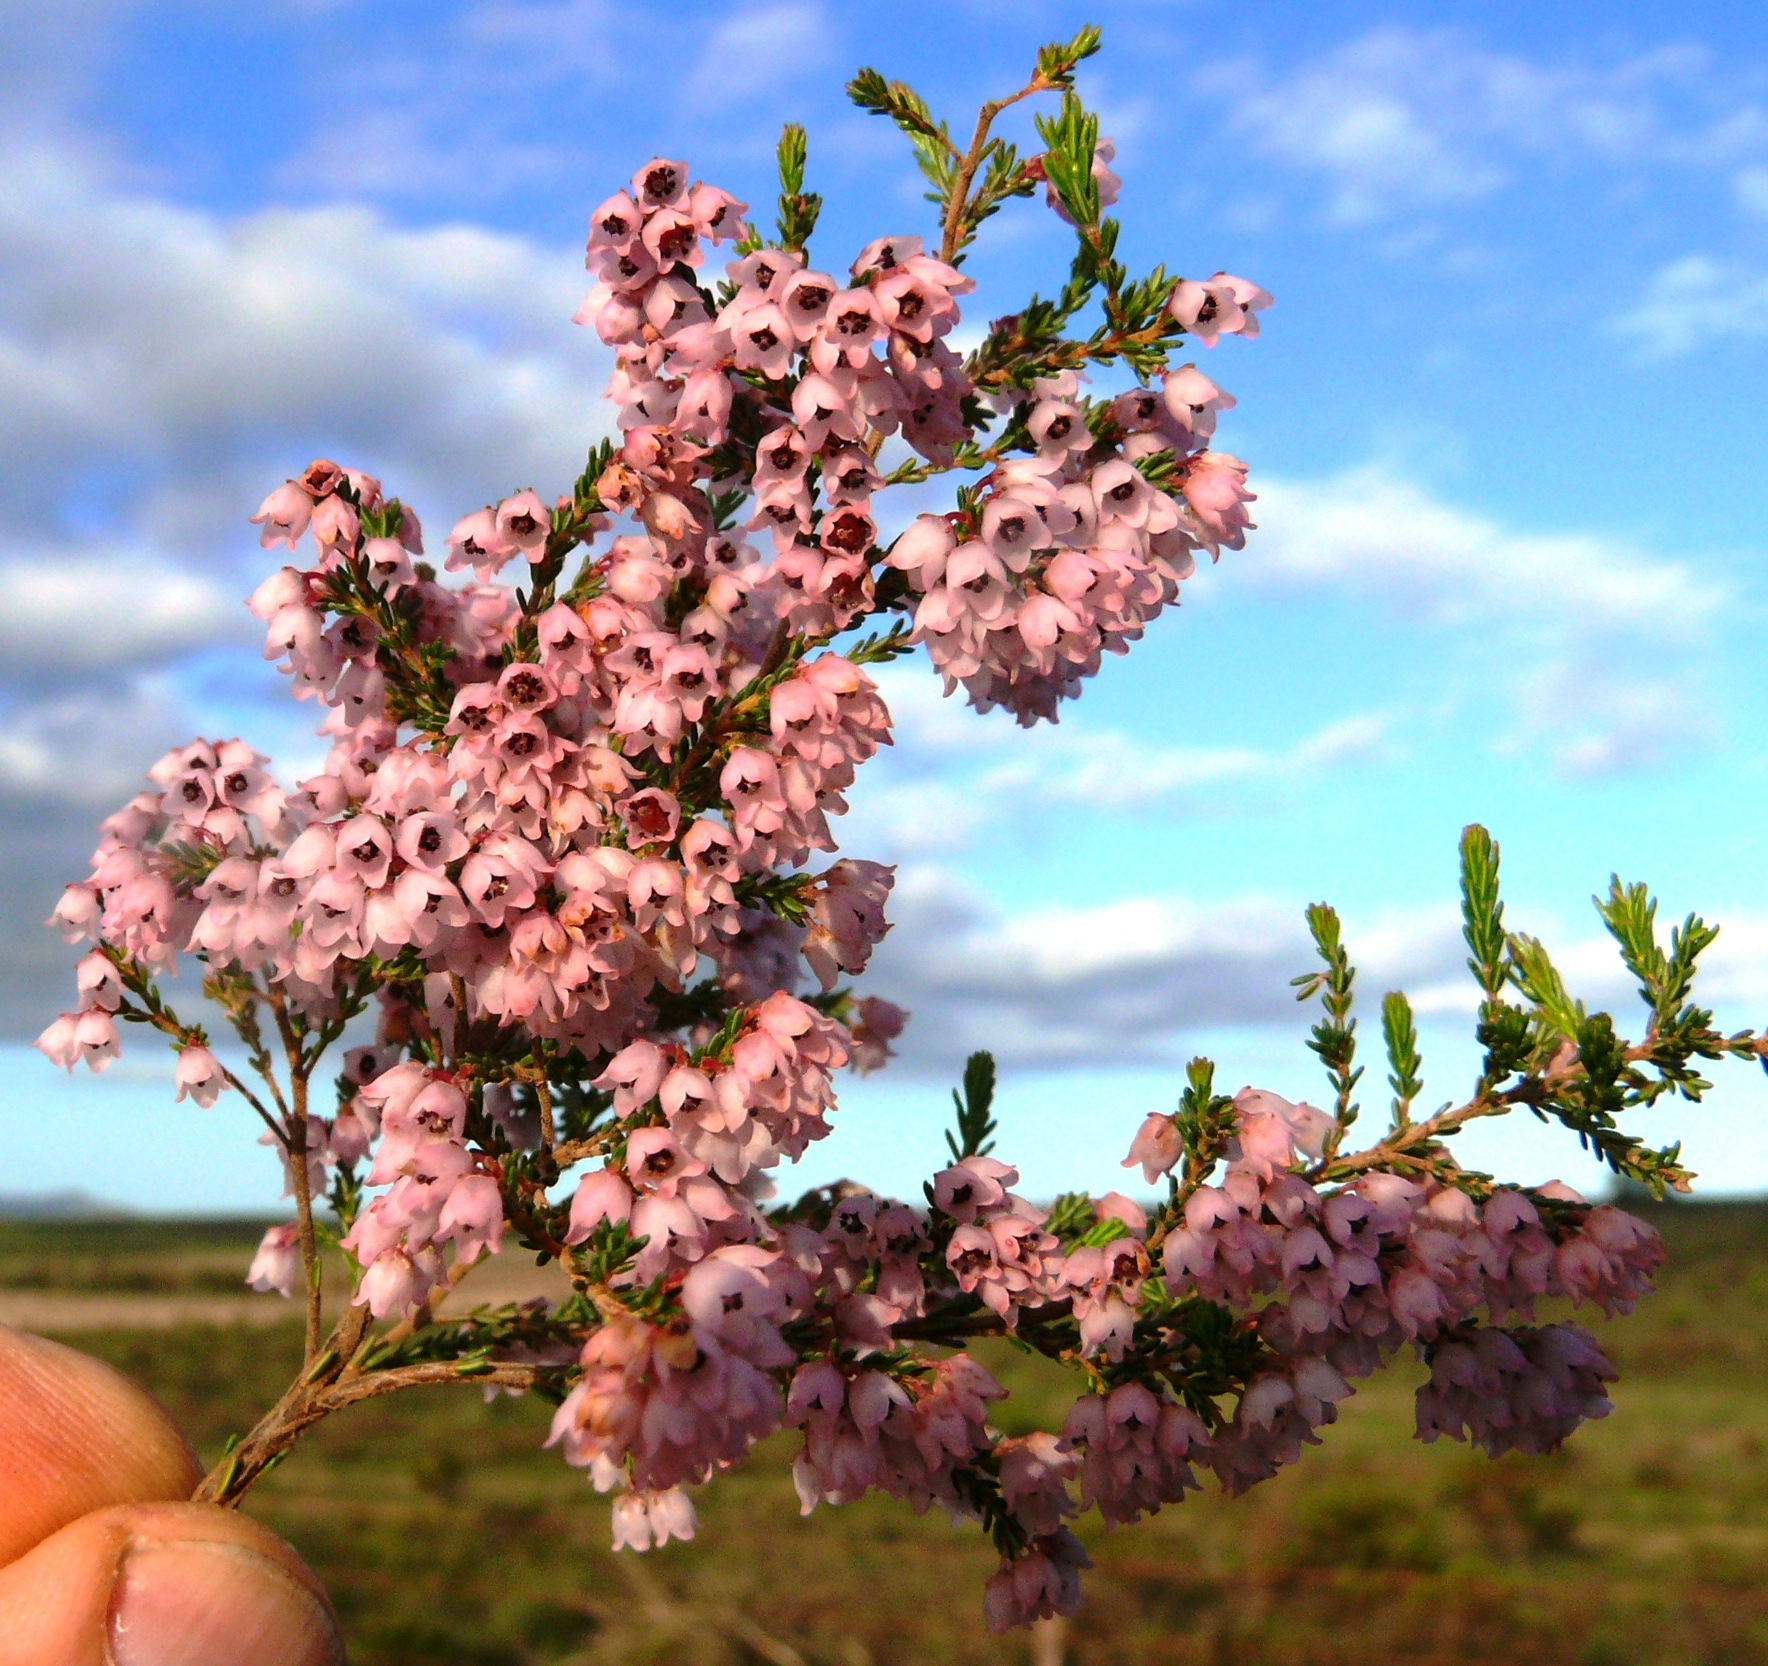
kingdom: Plantae
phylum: Tracheophyta
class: Magnoliopsida
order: Ericales
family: Ericaceae
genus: Erica
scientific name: Erica quadrangularis
